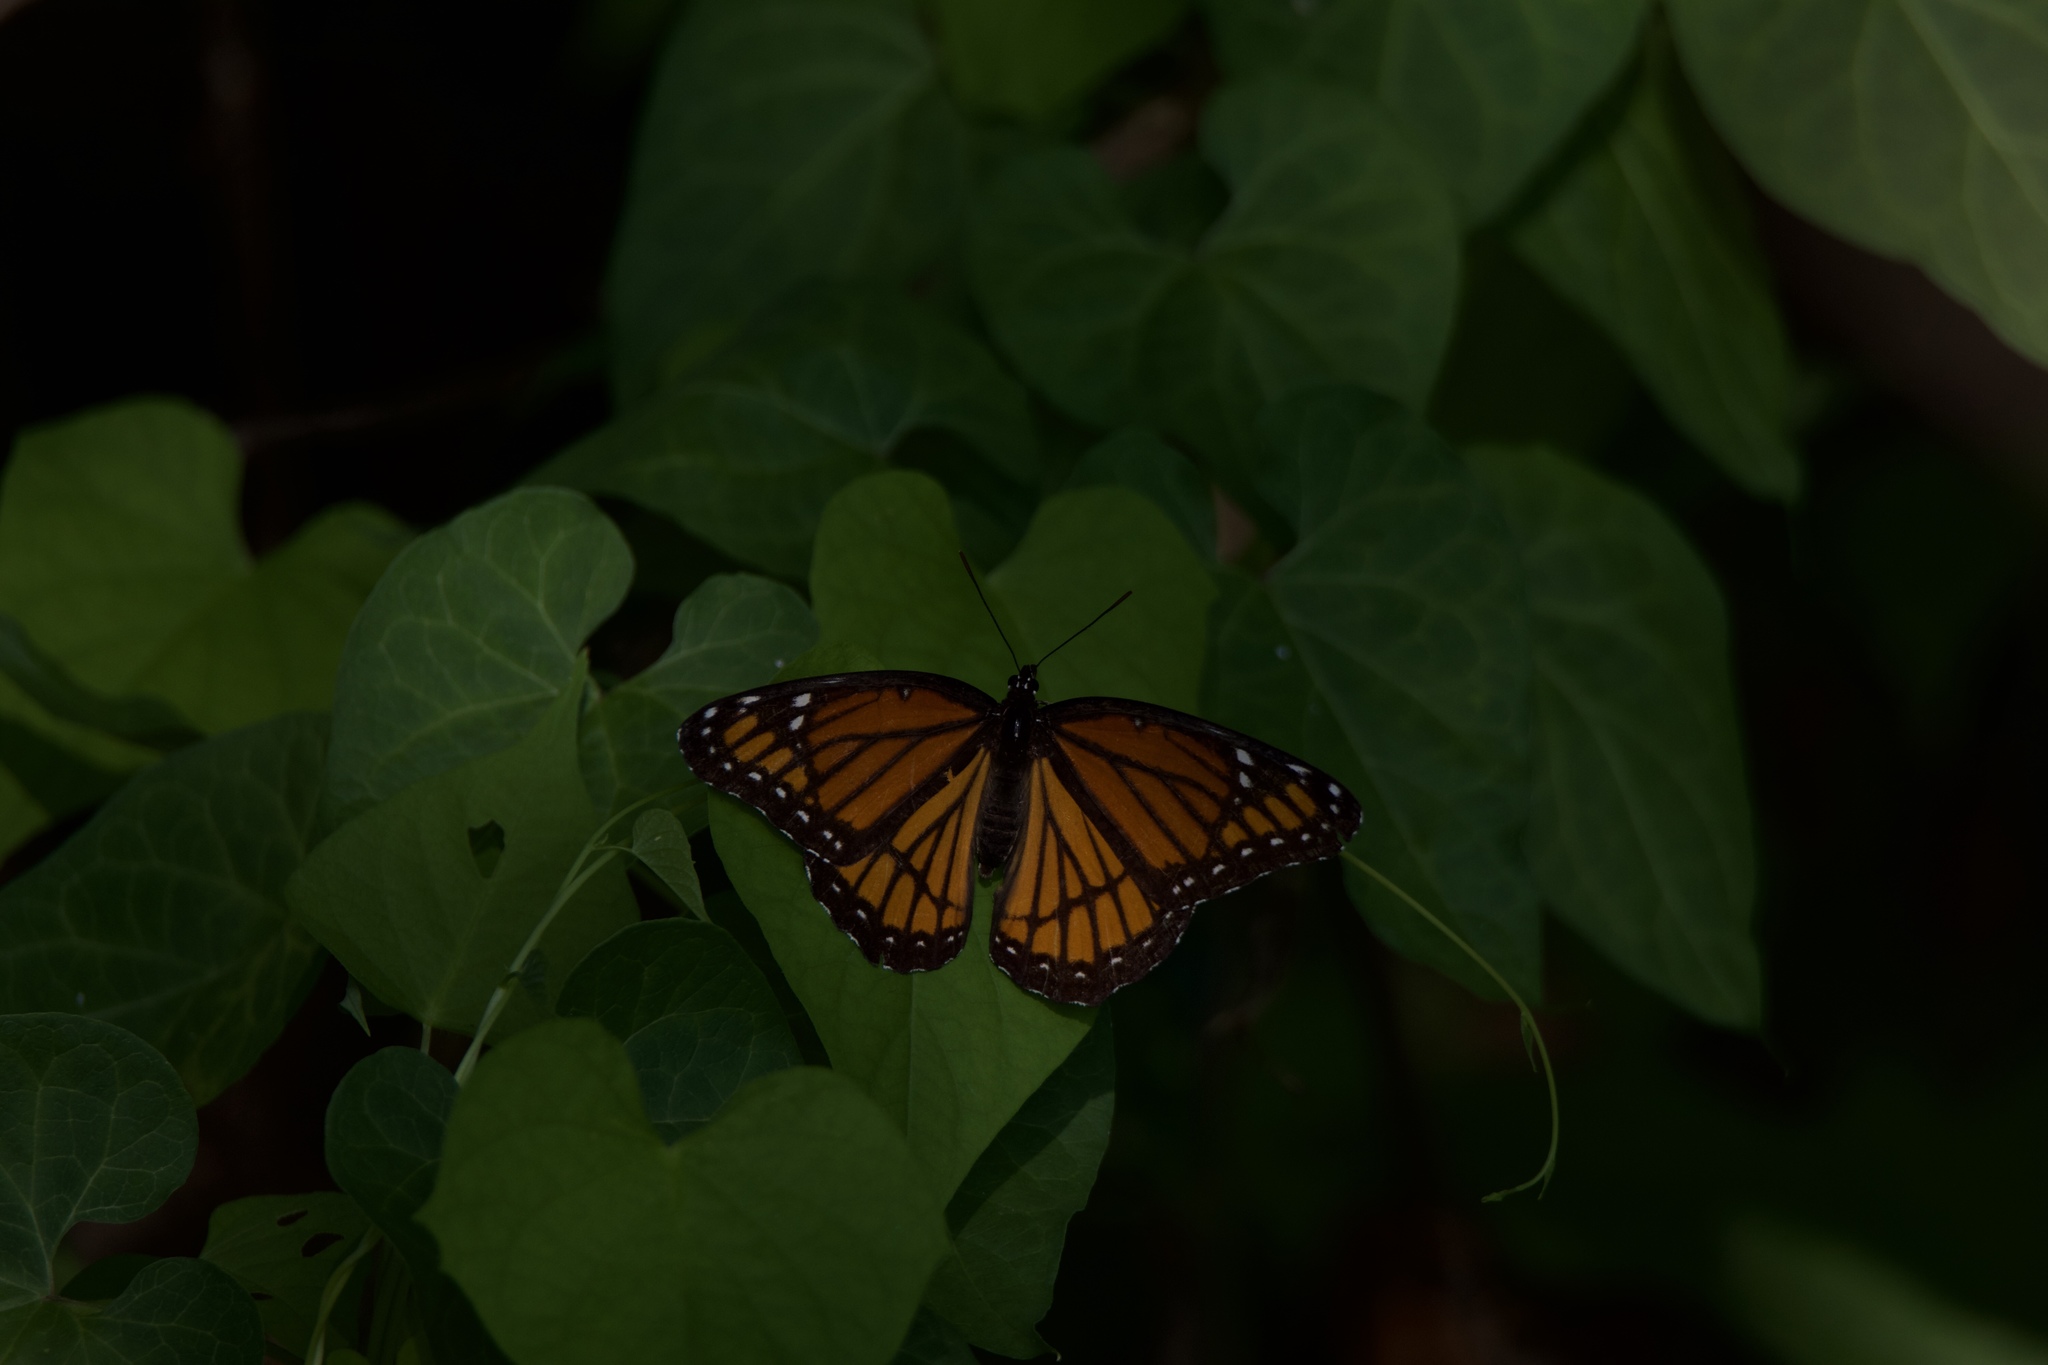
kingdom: Animalia
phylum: Arthropoda
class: Insecta
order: Lepidoptera
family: Nymphalidae
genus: Limenitis
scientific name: Limenitis archippus
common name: Viceroy
